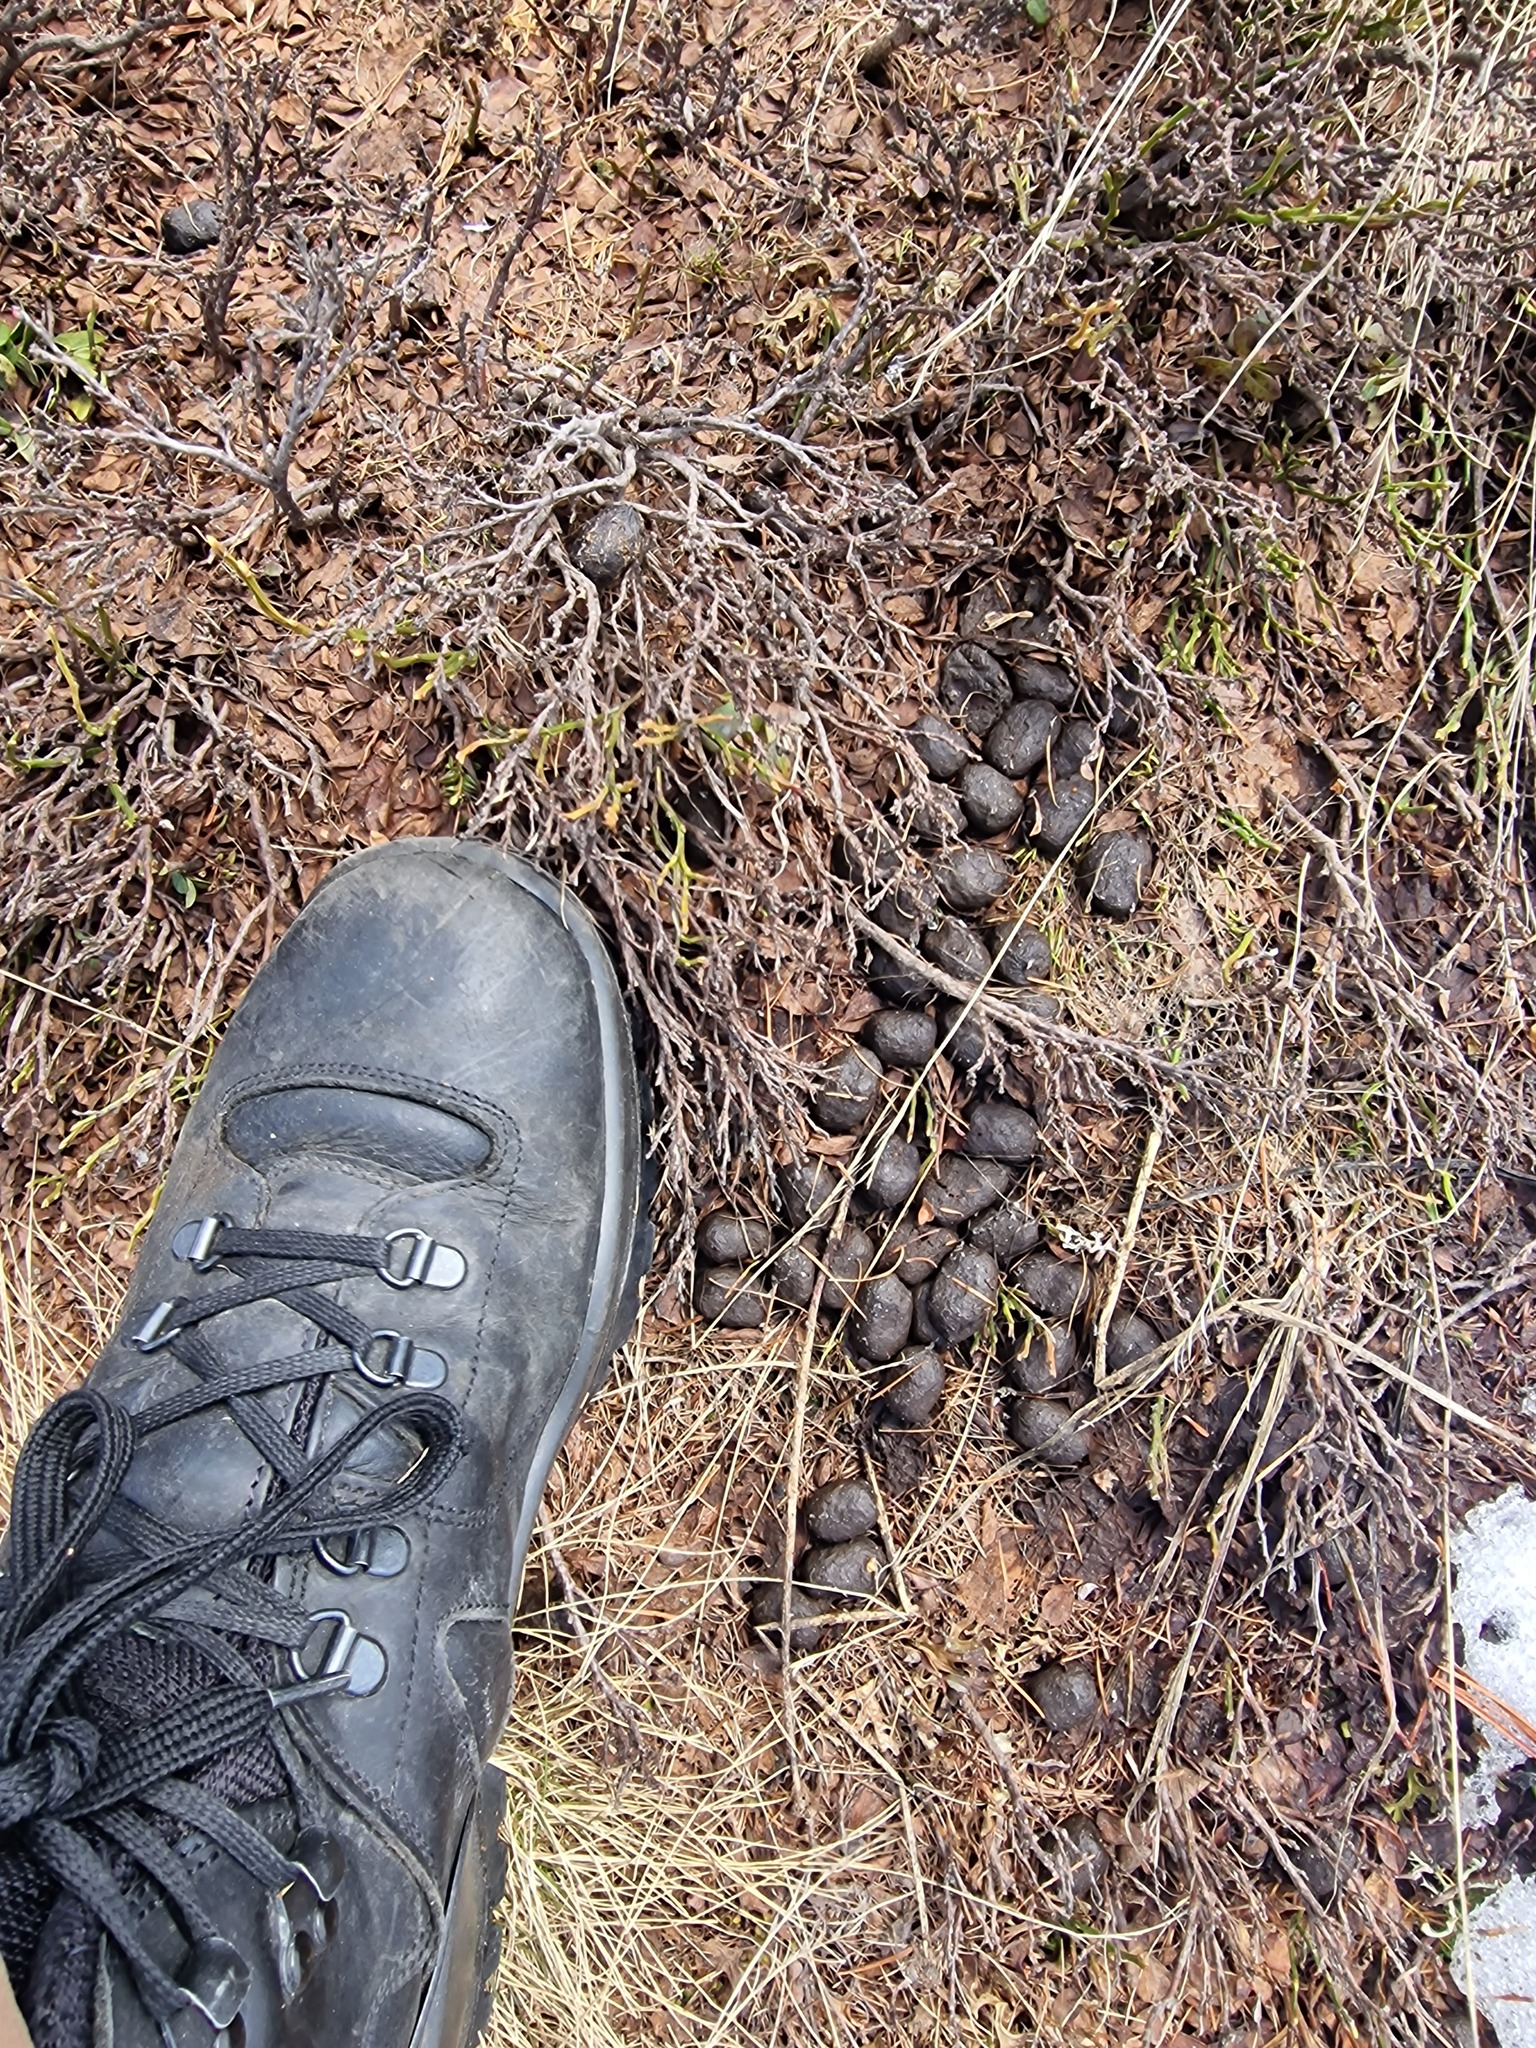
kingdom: Animalia
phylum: Chordata
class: Mammalia
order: Artiodactyla
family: Cervidae
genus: Cervus
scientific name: Cervus elaphus
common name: Red deer
